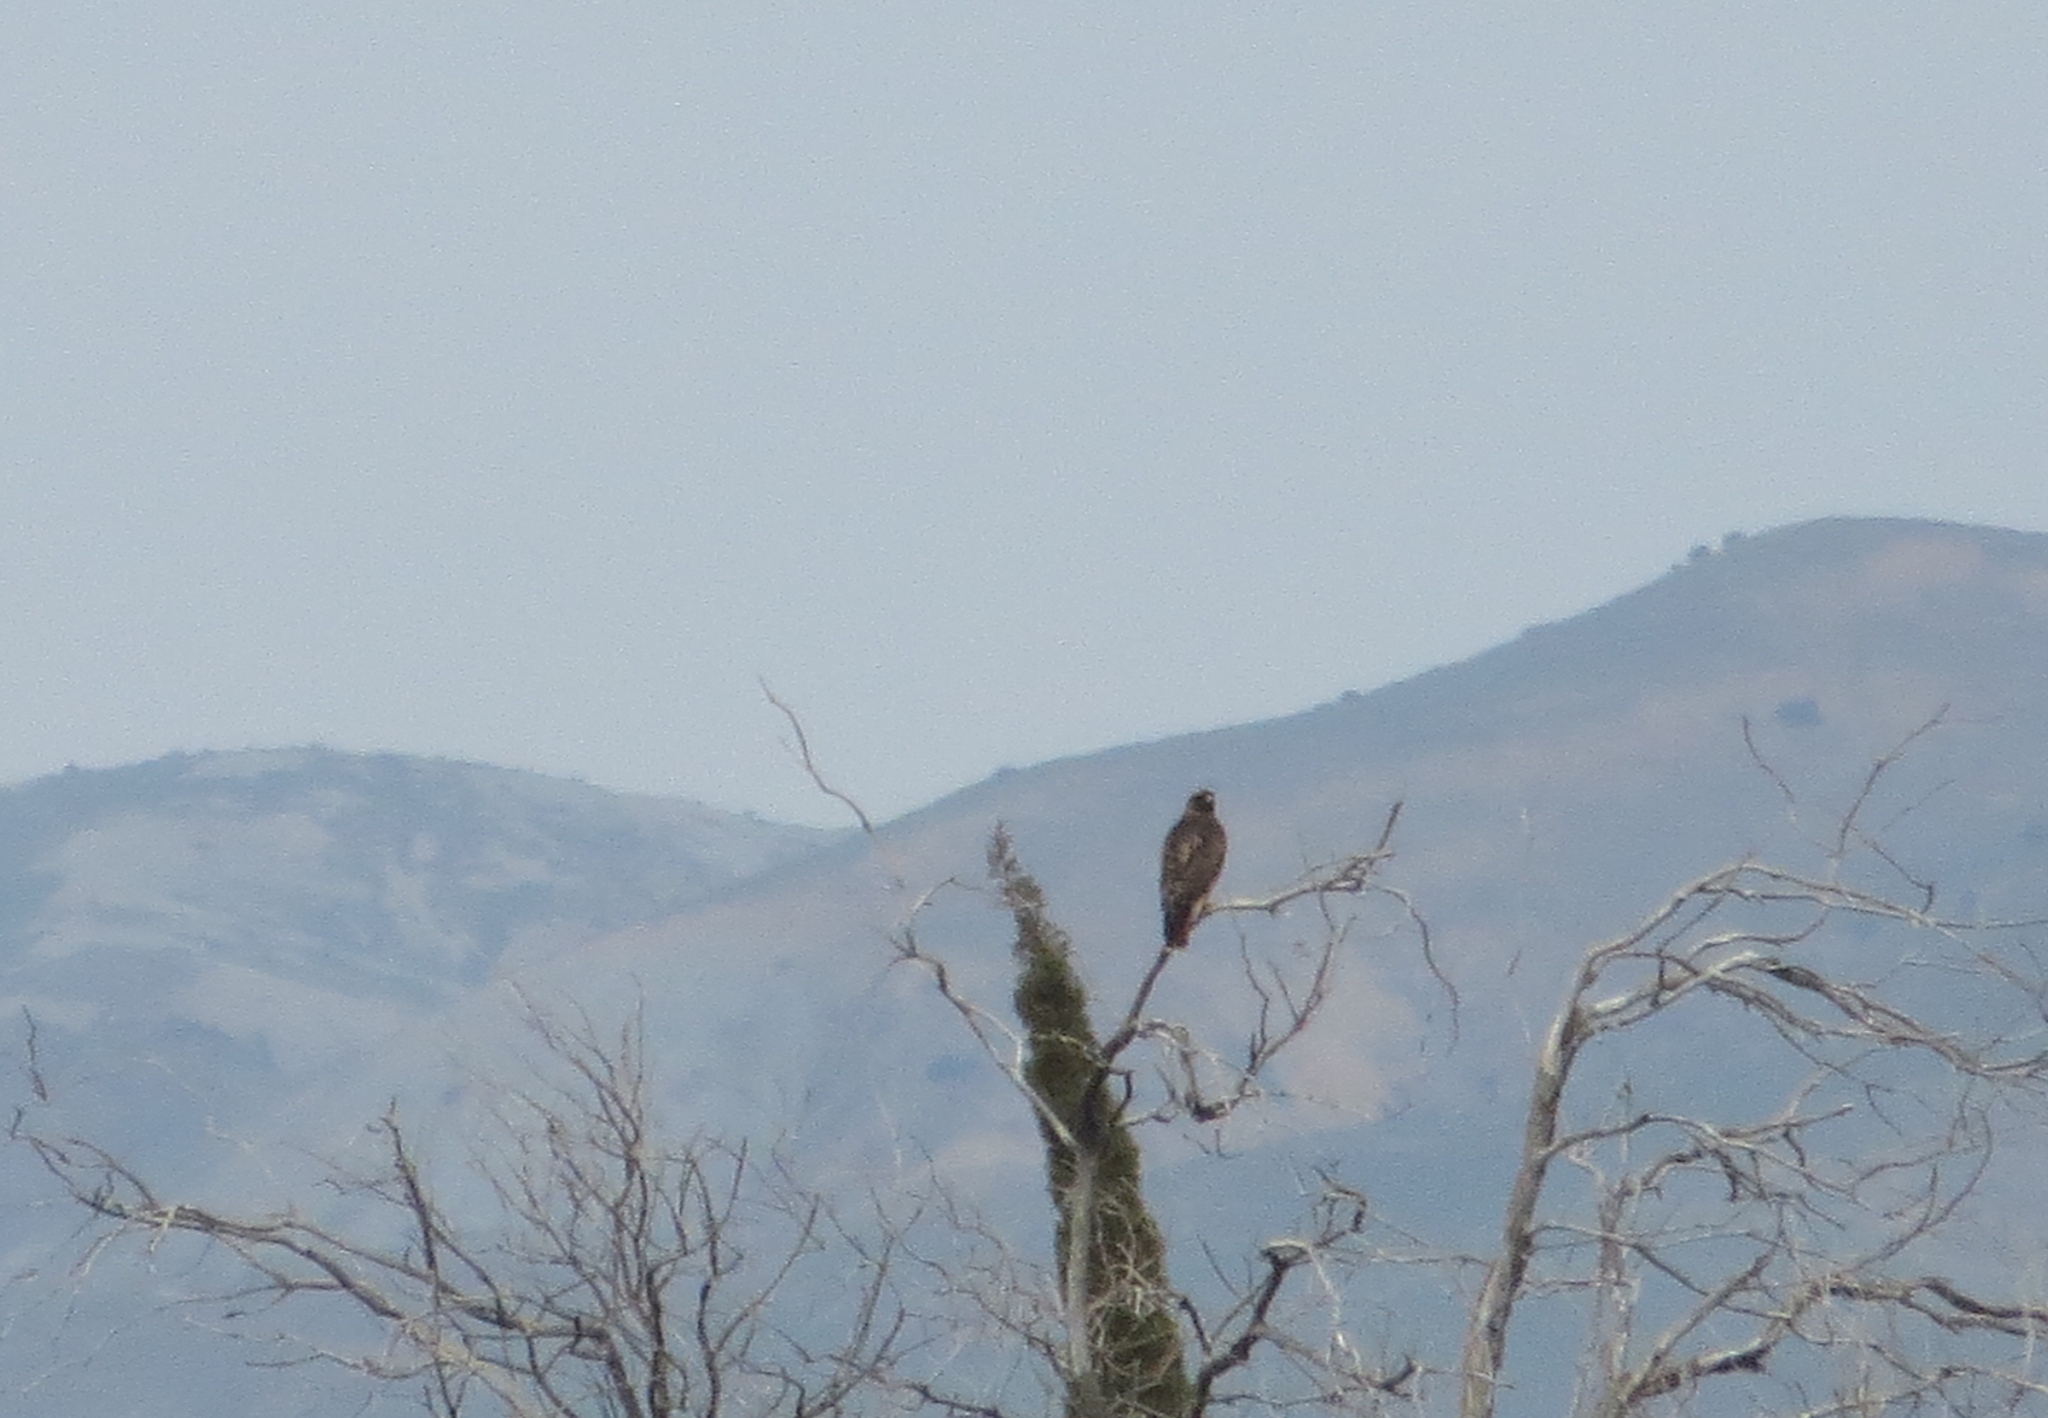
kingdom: Animalia
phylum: Chordata
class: Aves
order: Accipitriformes
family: Accipitridae
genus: Buteo
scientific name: Buteo jamaicensis
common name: Red-tailed hawk
